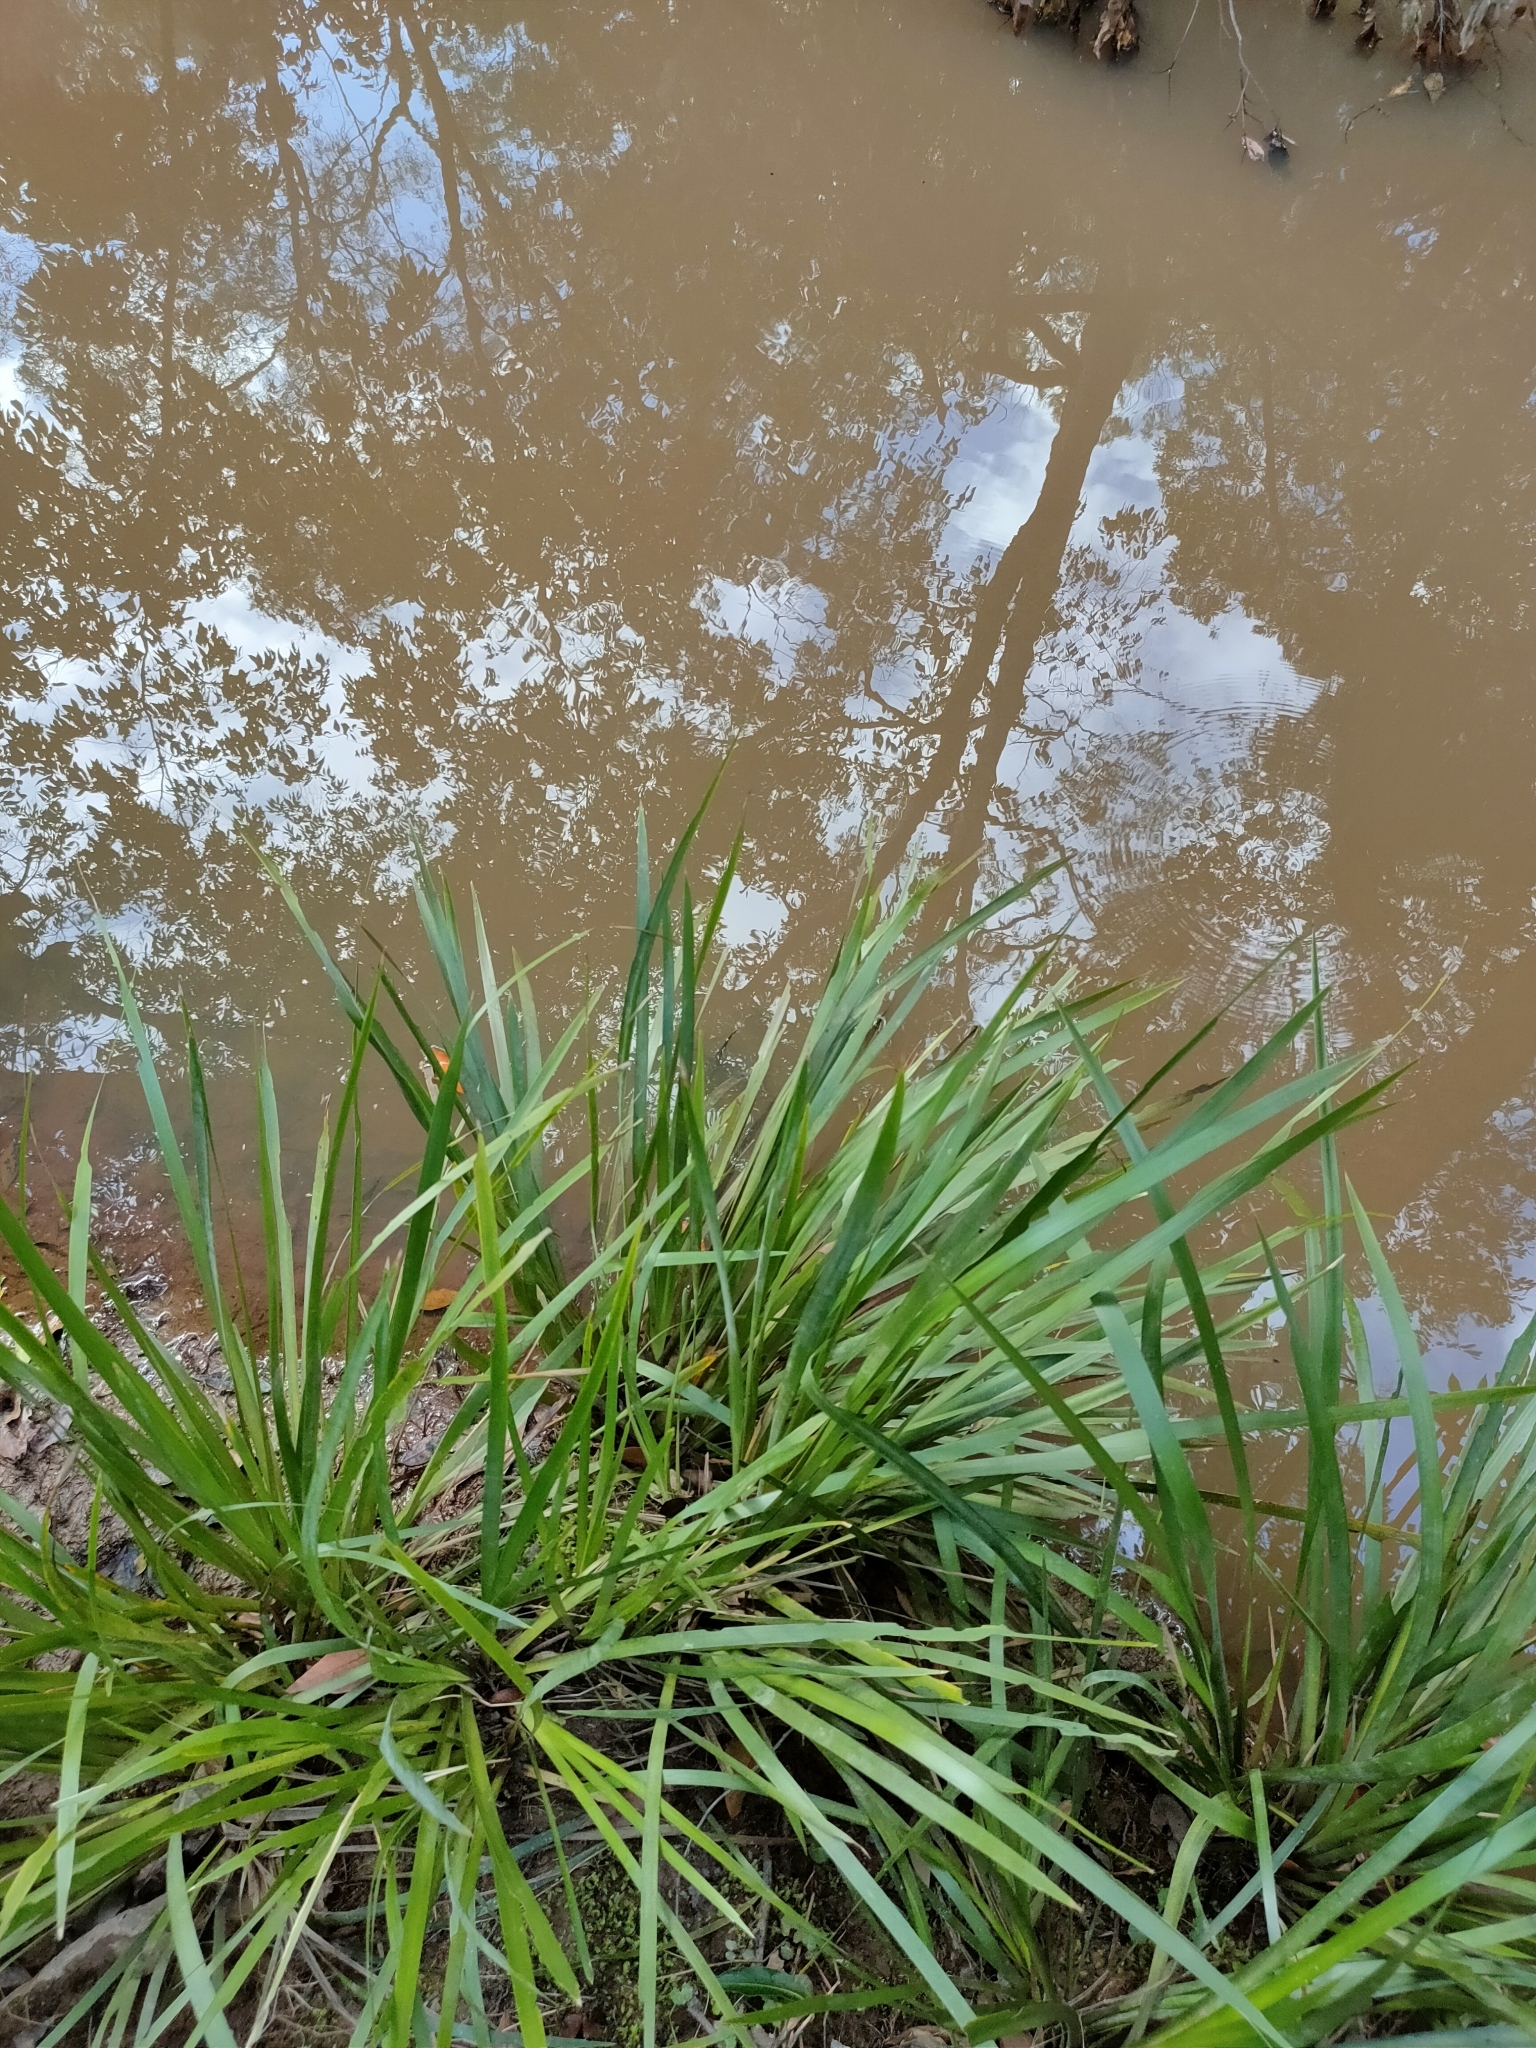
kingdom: Plantae
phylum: Tracheophyta
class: Liliopsida
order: Asparagales
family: Asparagaceae
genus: Lomandra
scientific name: Lomandra hystrix
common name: Creek mat-rush
